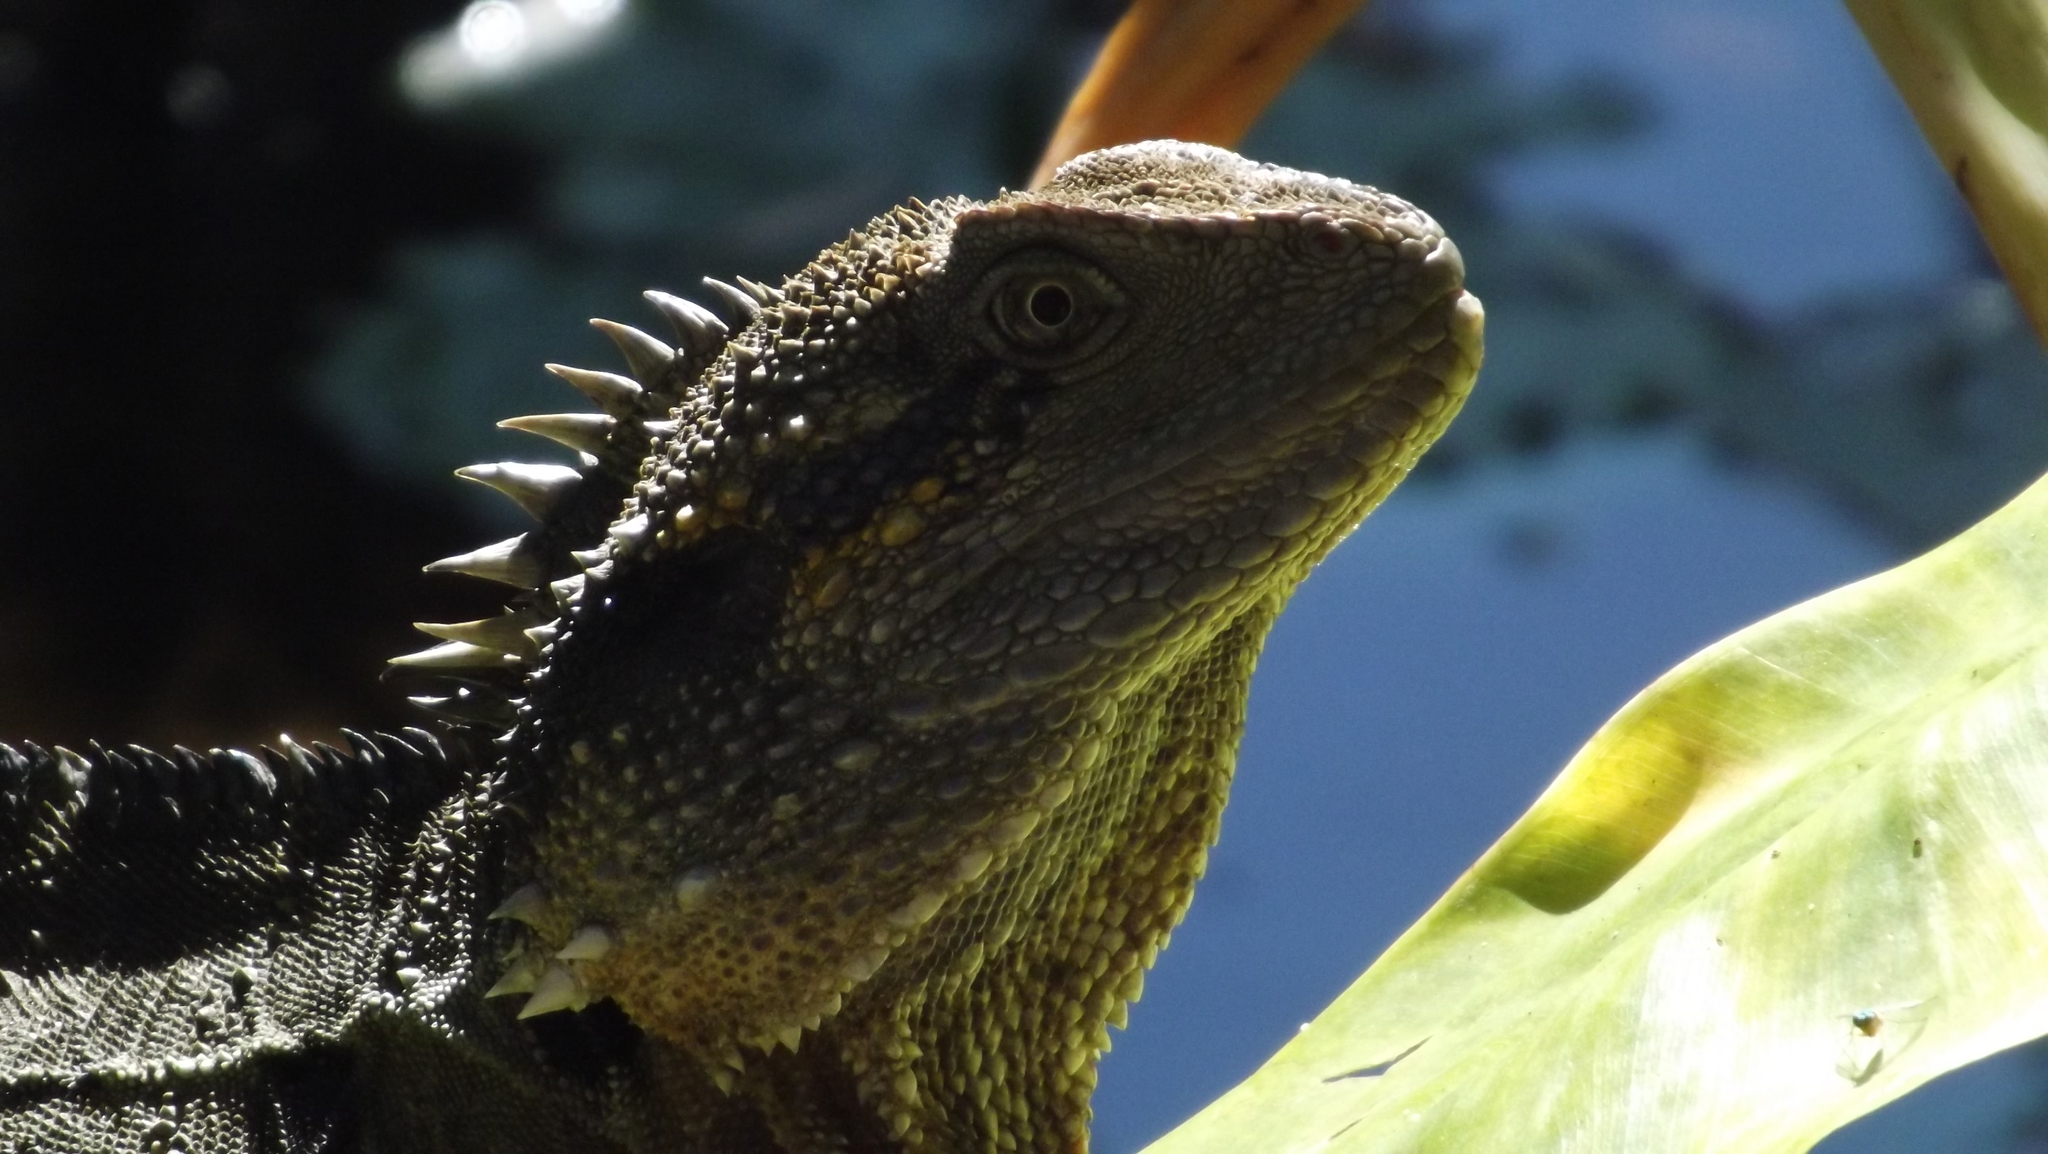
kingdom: Animalia
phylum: Chordata
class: Squamata
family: Agamidae
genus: Intellagama
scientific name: Intellagama lesueurii
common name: Eastern water dragon
